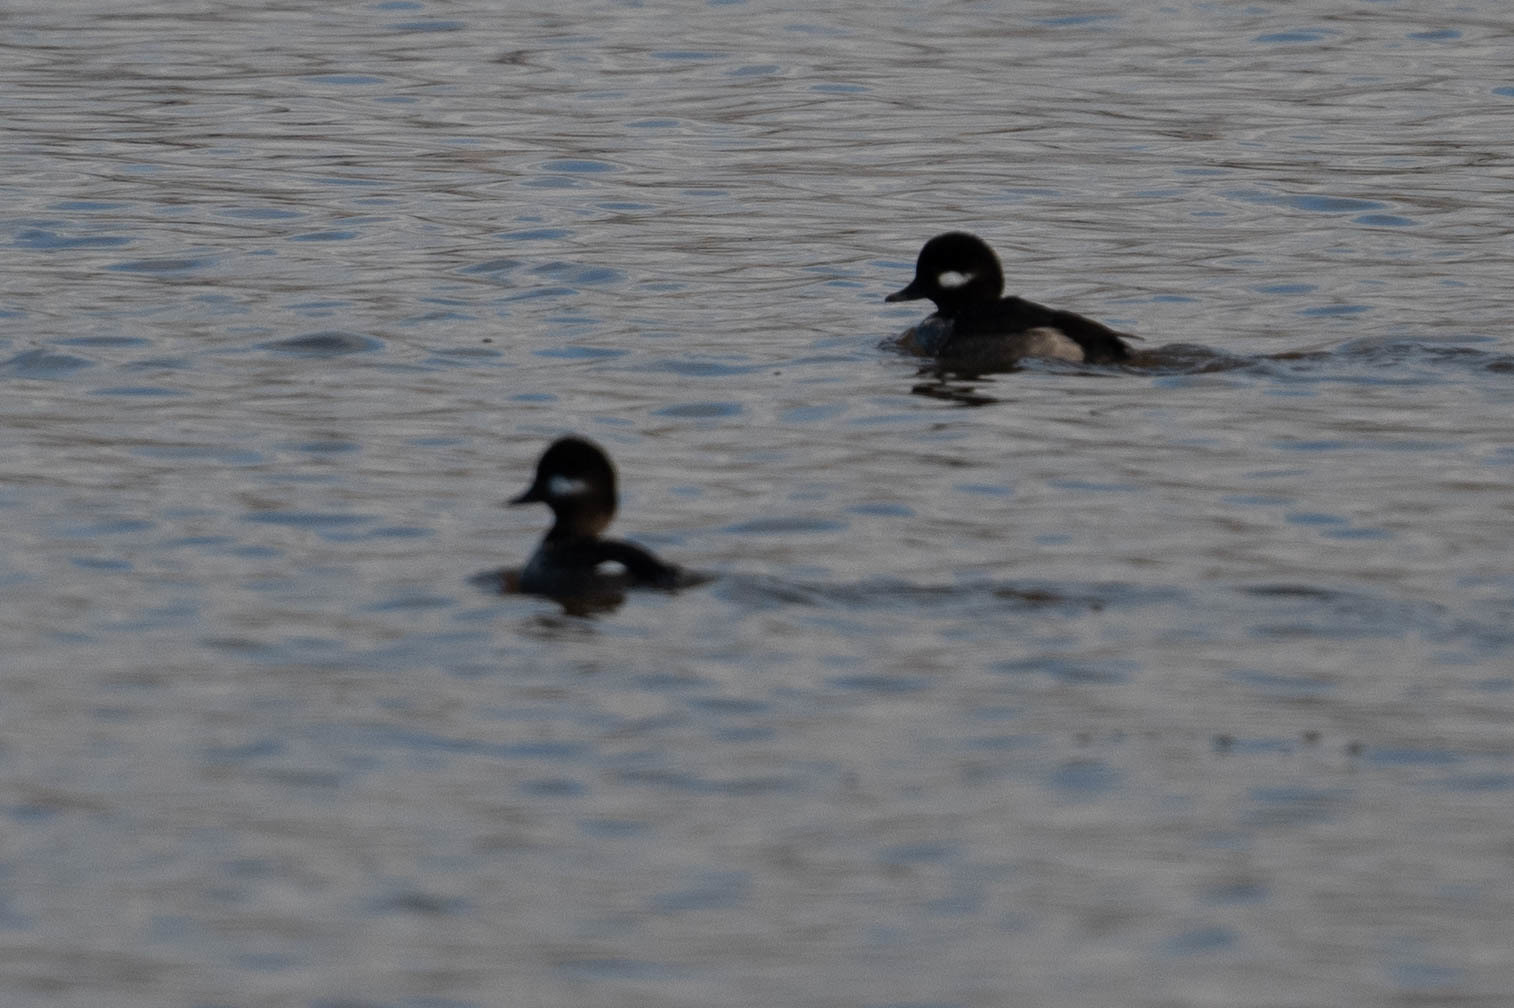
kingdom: Animalia
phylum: Chordata
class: Aves
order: Anseriformes
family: Anatidae
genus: Bucephala
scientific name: Bucephala albeola
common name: Bufflehead
